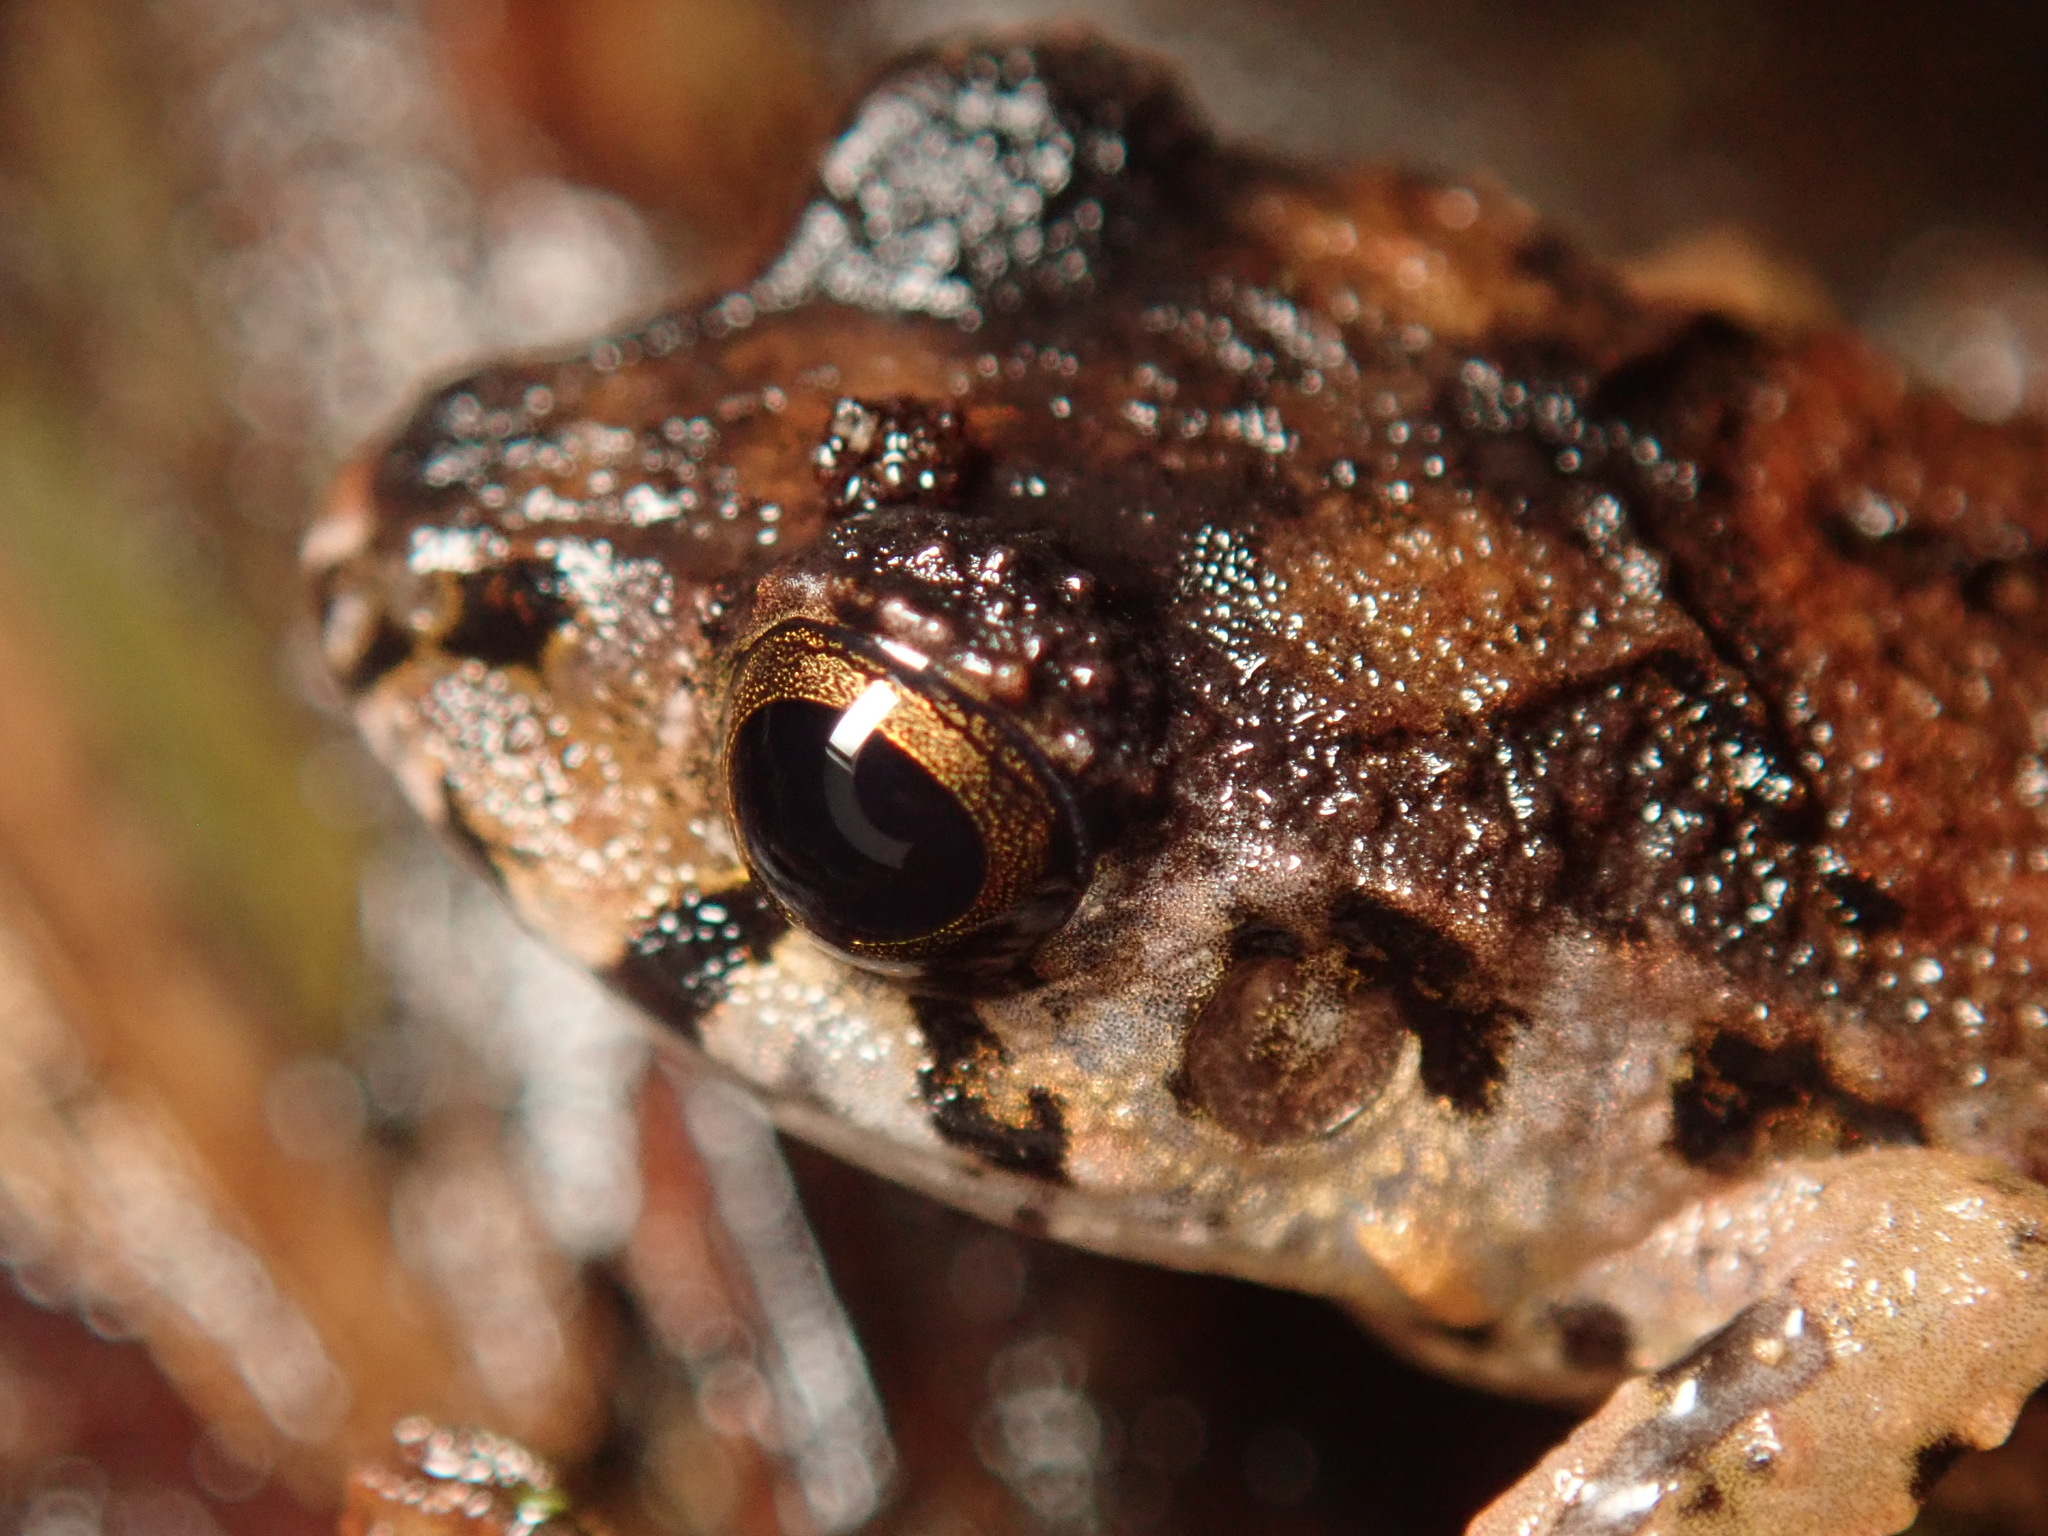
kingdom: Animalia
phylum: Chordata
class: Amphibia
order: Anura
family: Craugastoridae
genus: Craugastor
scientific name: Craugastor bransfordii
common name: Bransford's robber frog
